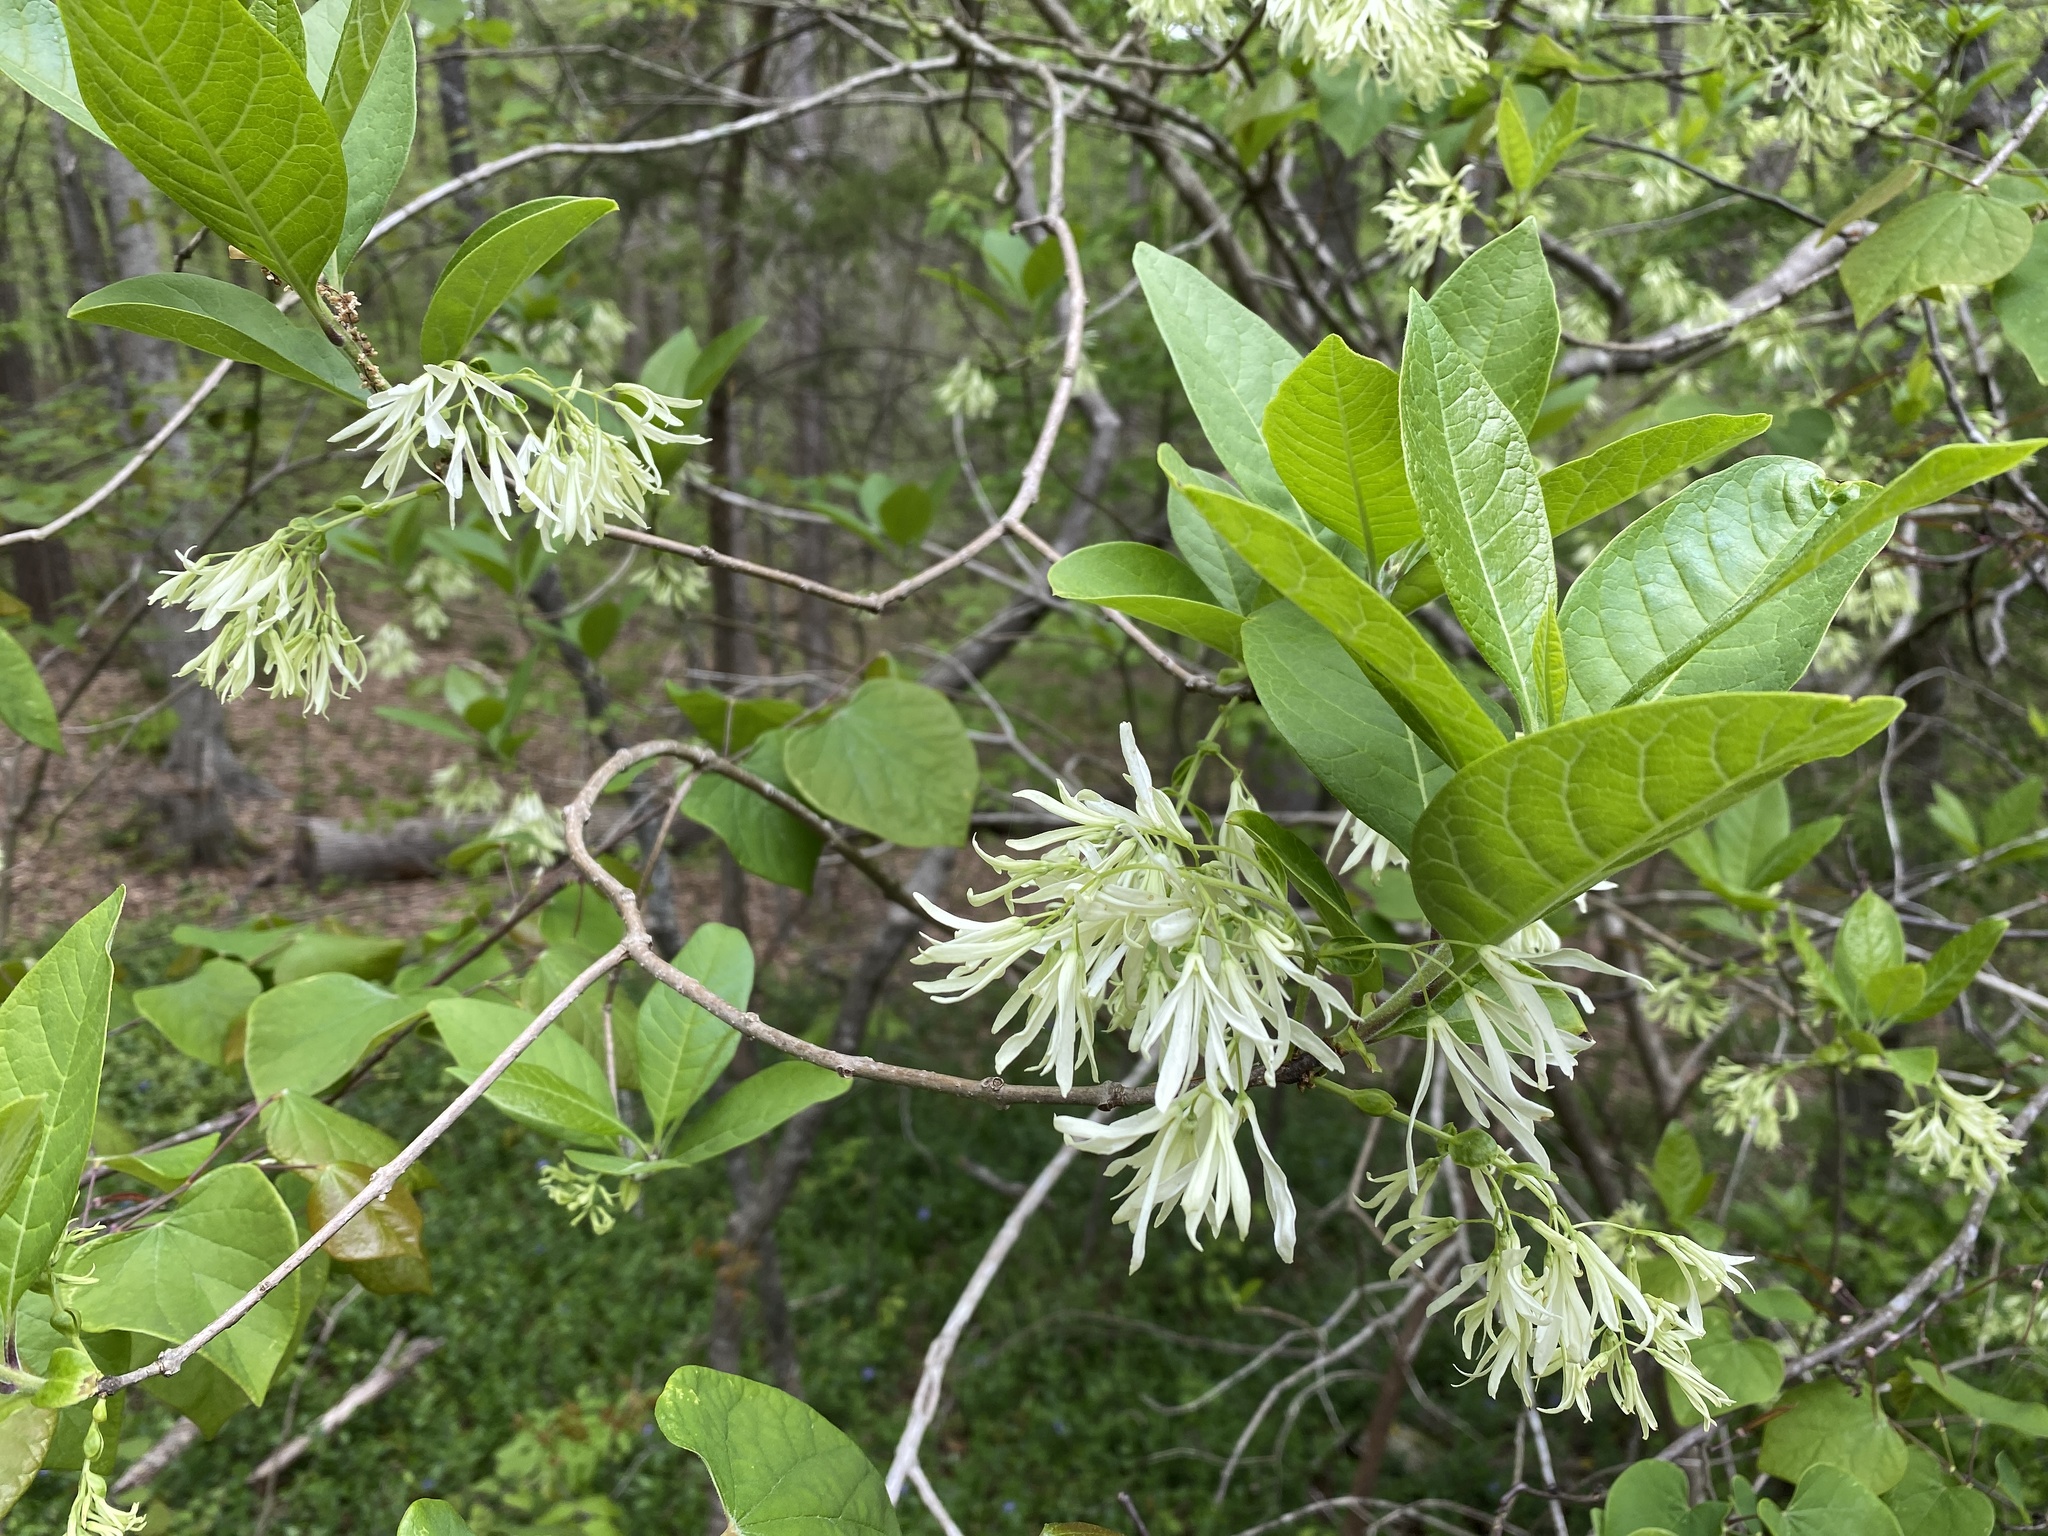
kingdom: Plantae
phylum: Tracheophyta
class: Magnoliopsida
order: Lamiales
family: Oleaceae
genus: Chionanthus
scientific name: Chionanthus virginicus
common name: American fringetree
